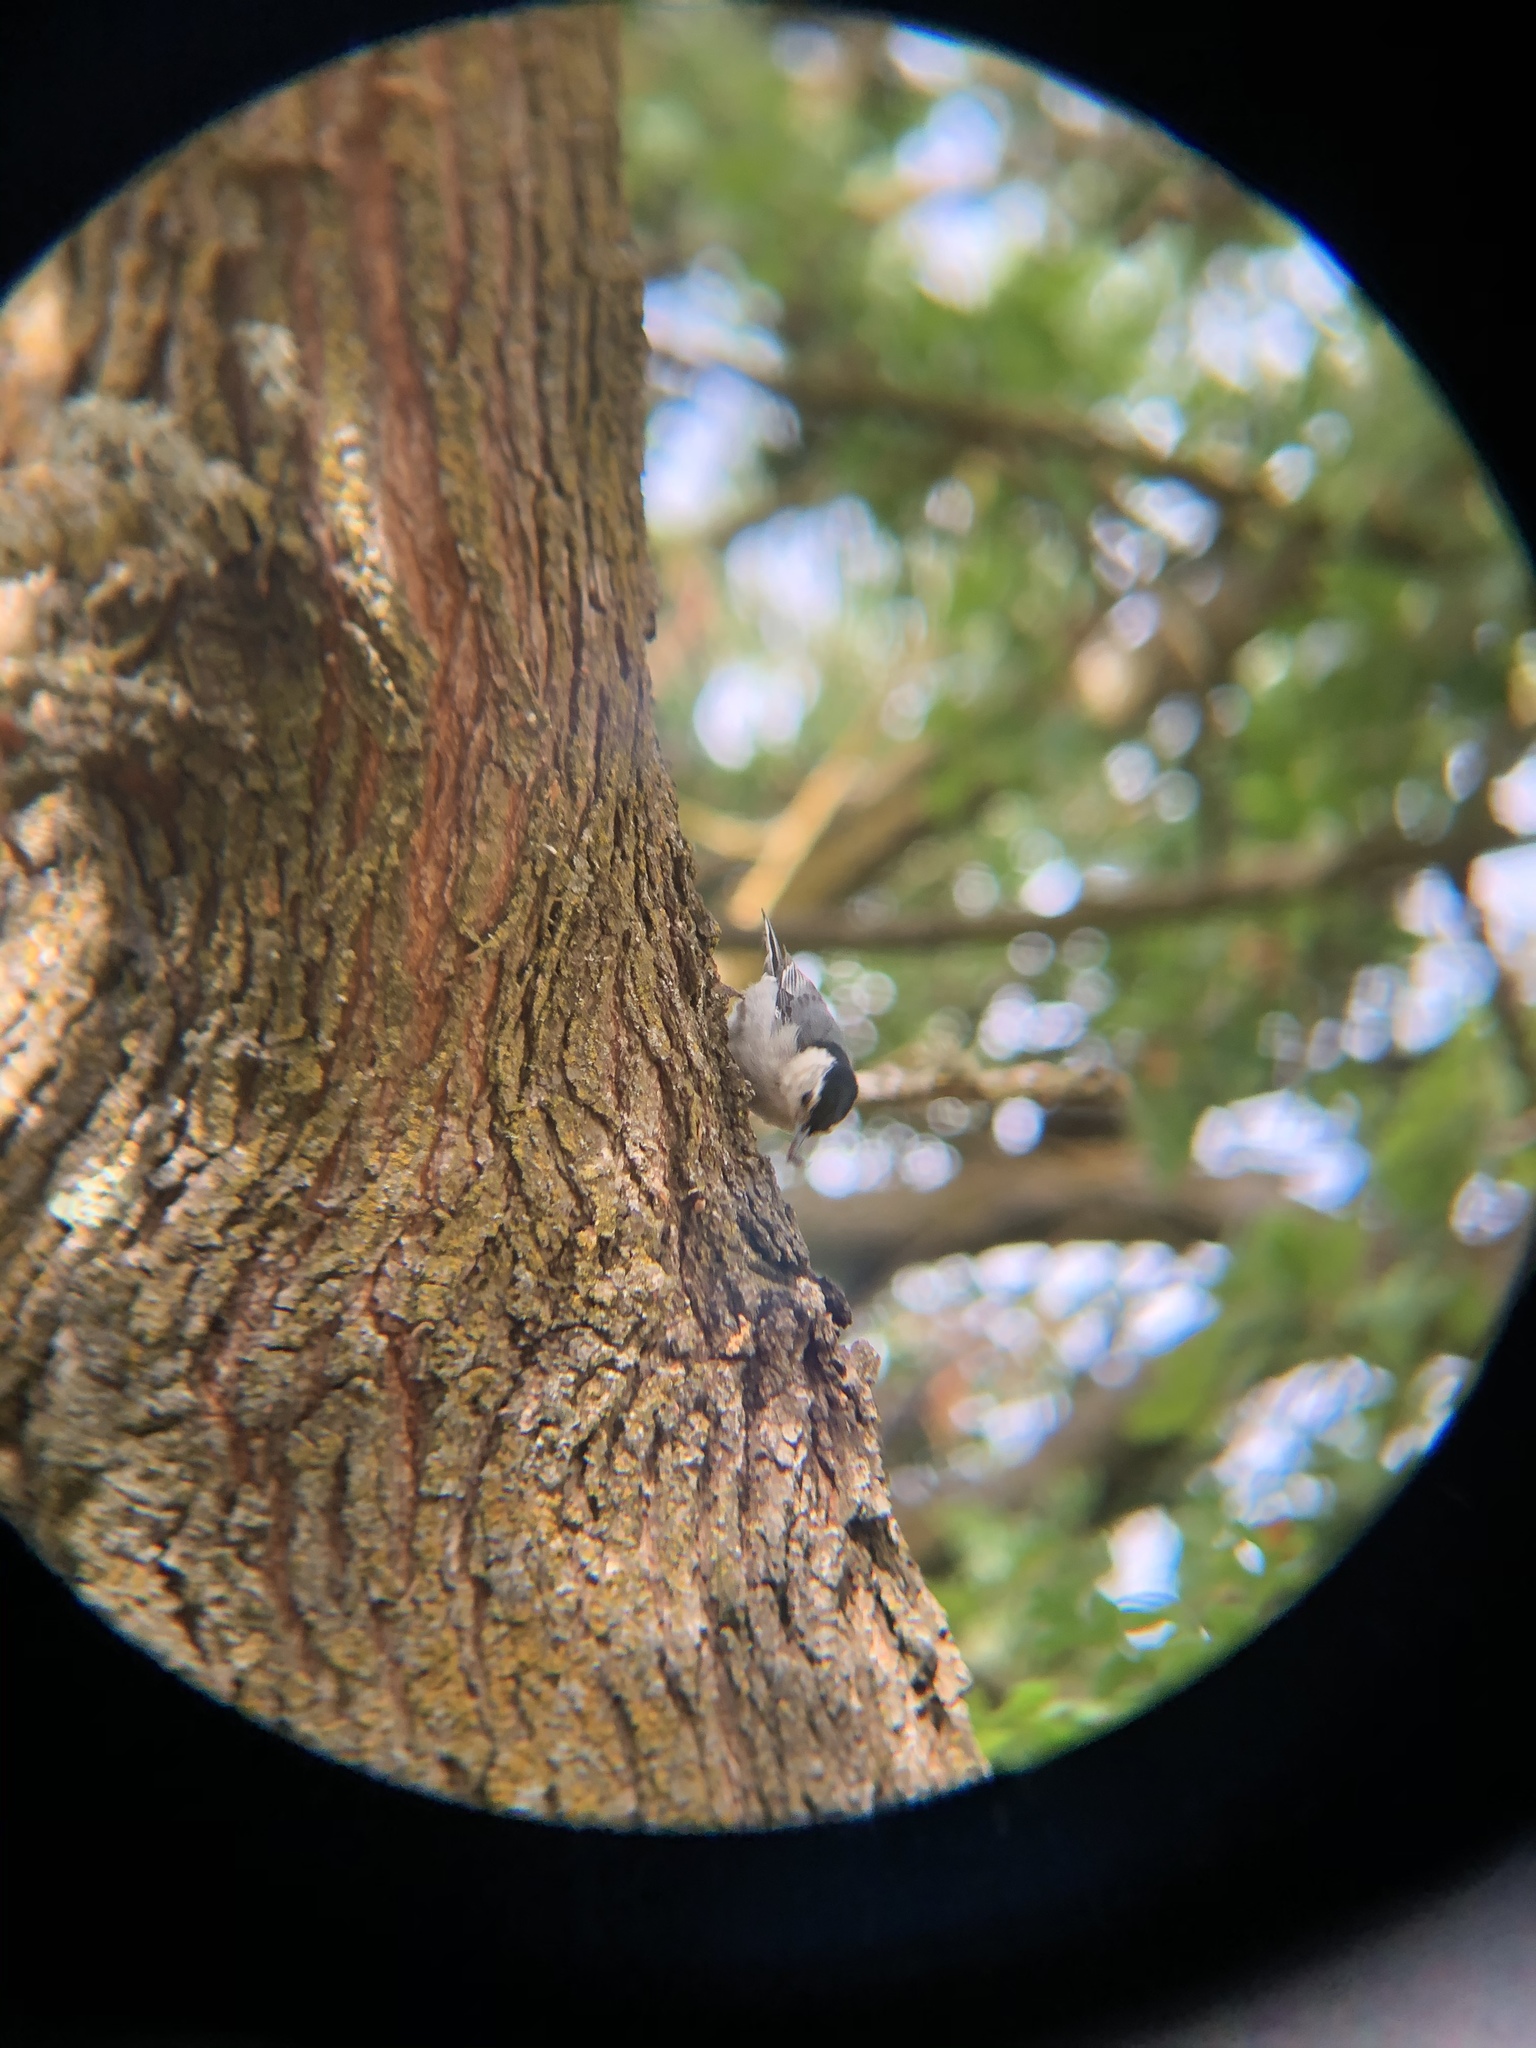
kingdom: Animalia
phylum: Chordata
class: Aves
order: Passeriformes
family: Sittidae
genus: Sitta
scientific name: Sitta carolinensis
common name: White-breasted nuthatch
